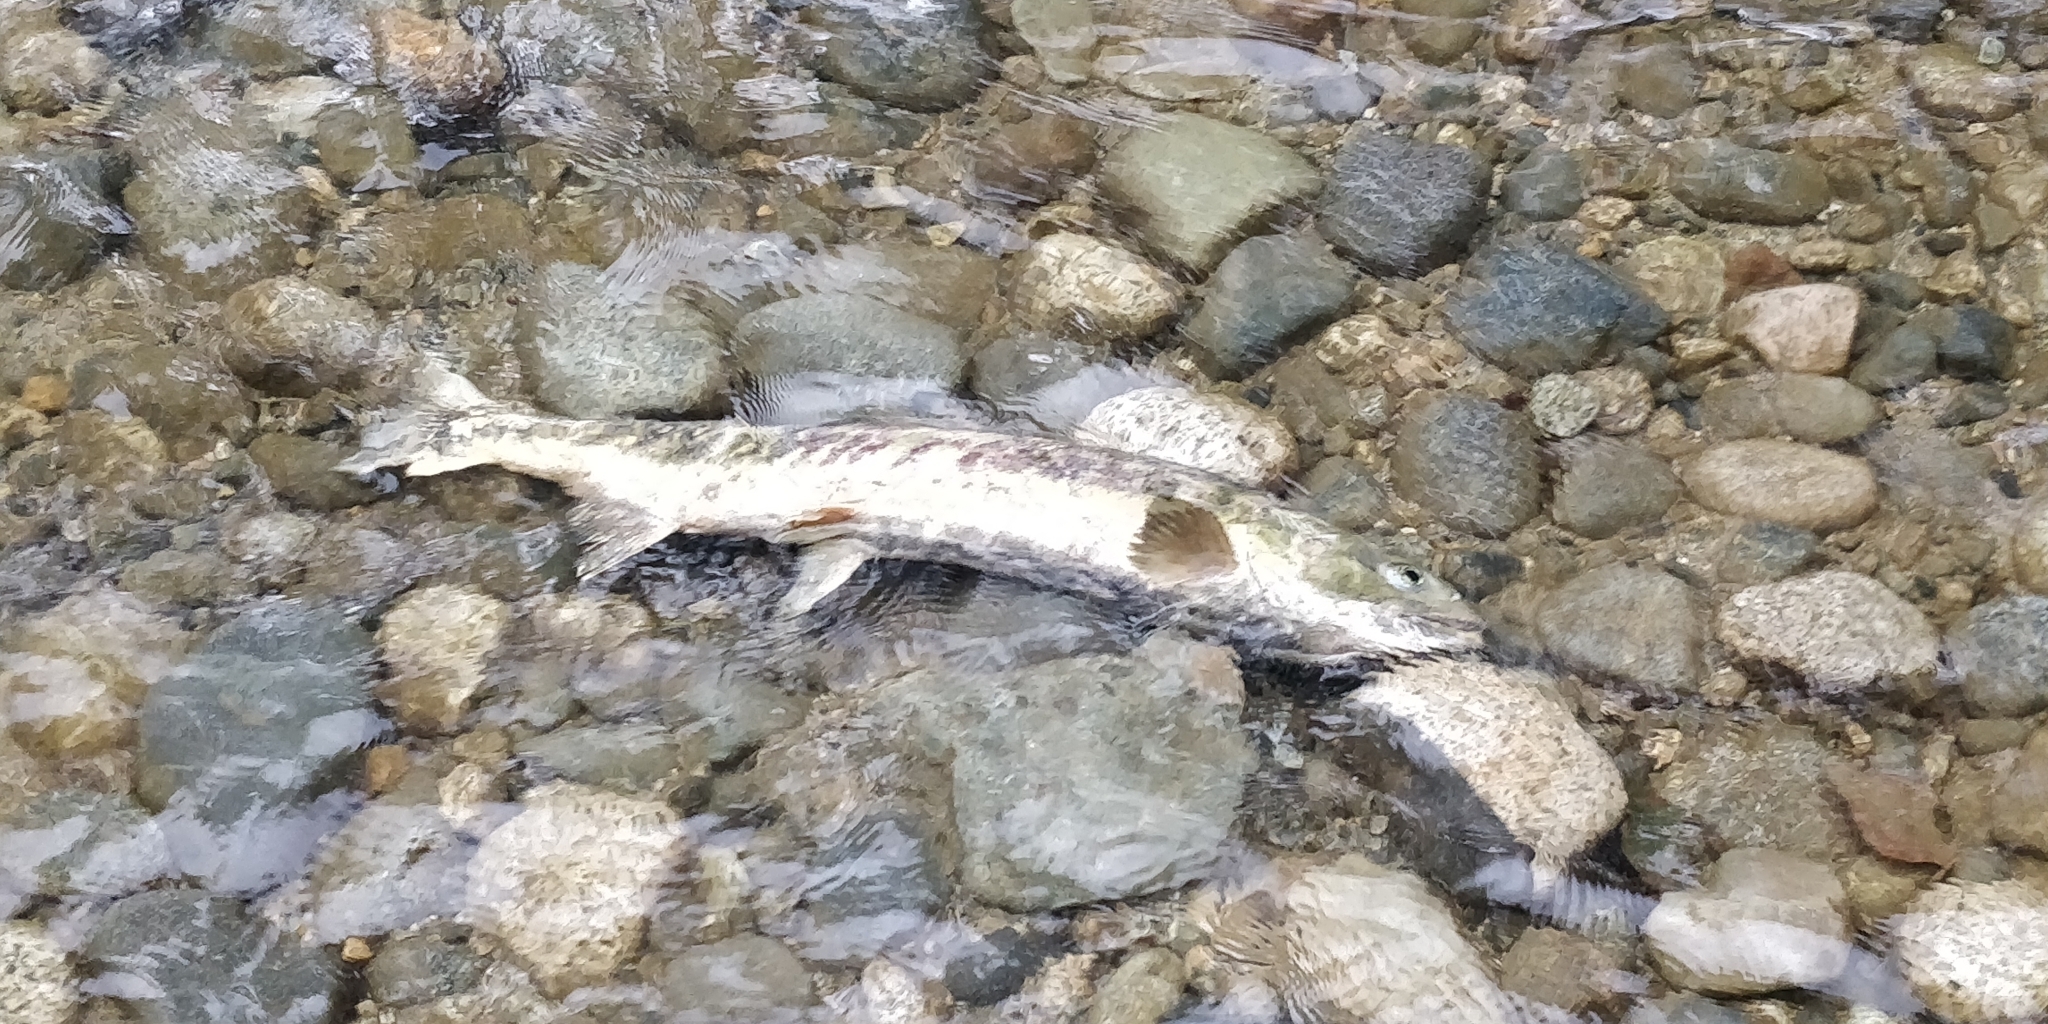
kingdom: Animalia
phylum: Chordata
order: Salmoniformes
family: Salmonidae
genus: Oncorhynchus
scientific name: Oncorhynchus keta
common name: Chum salmon
